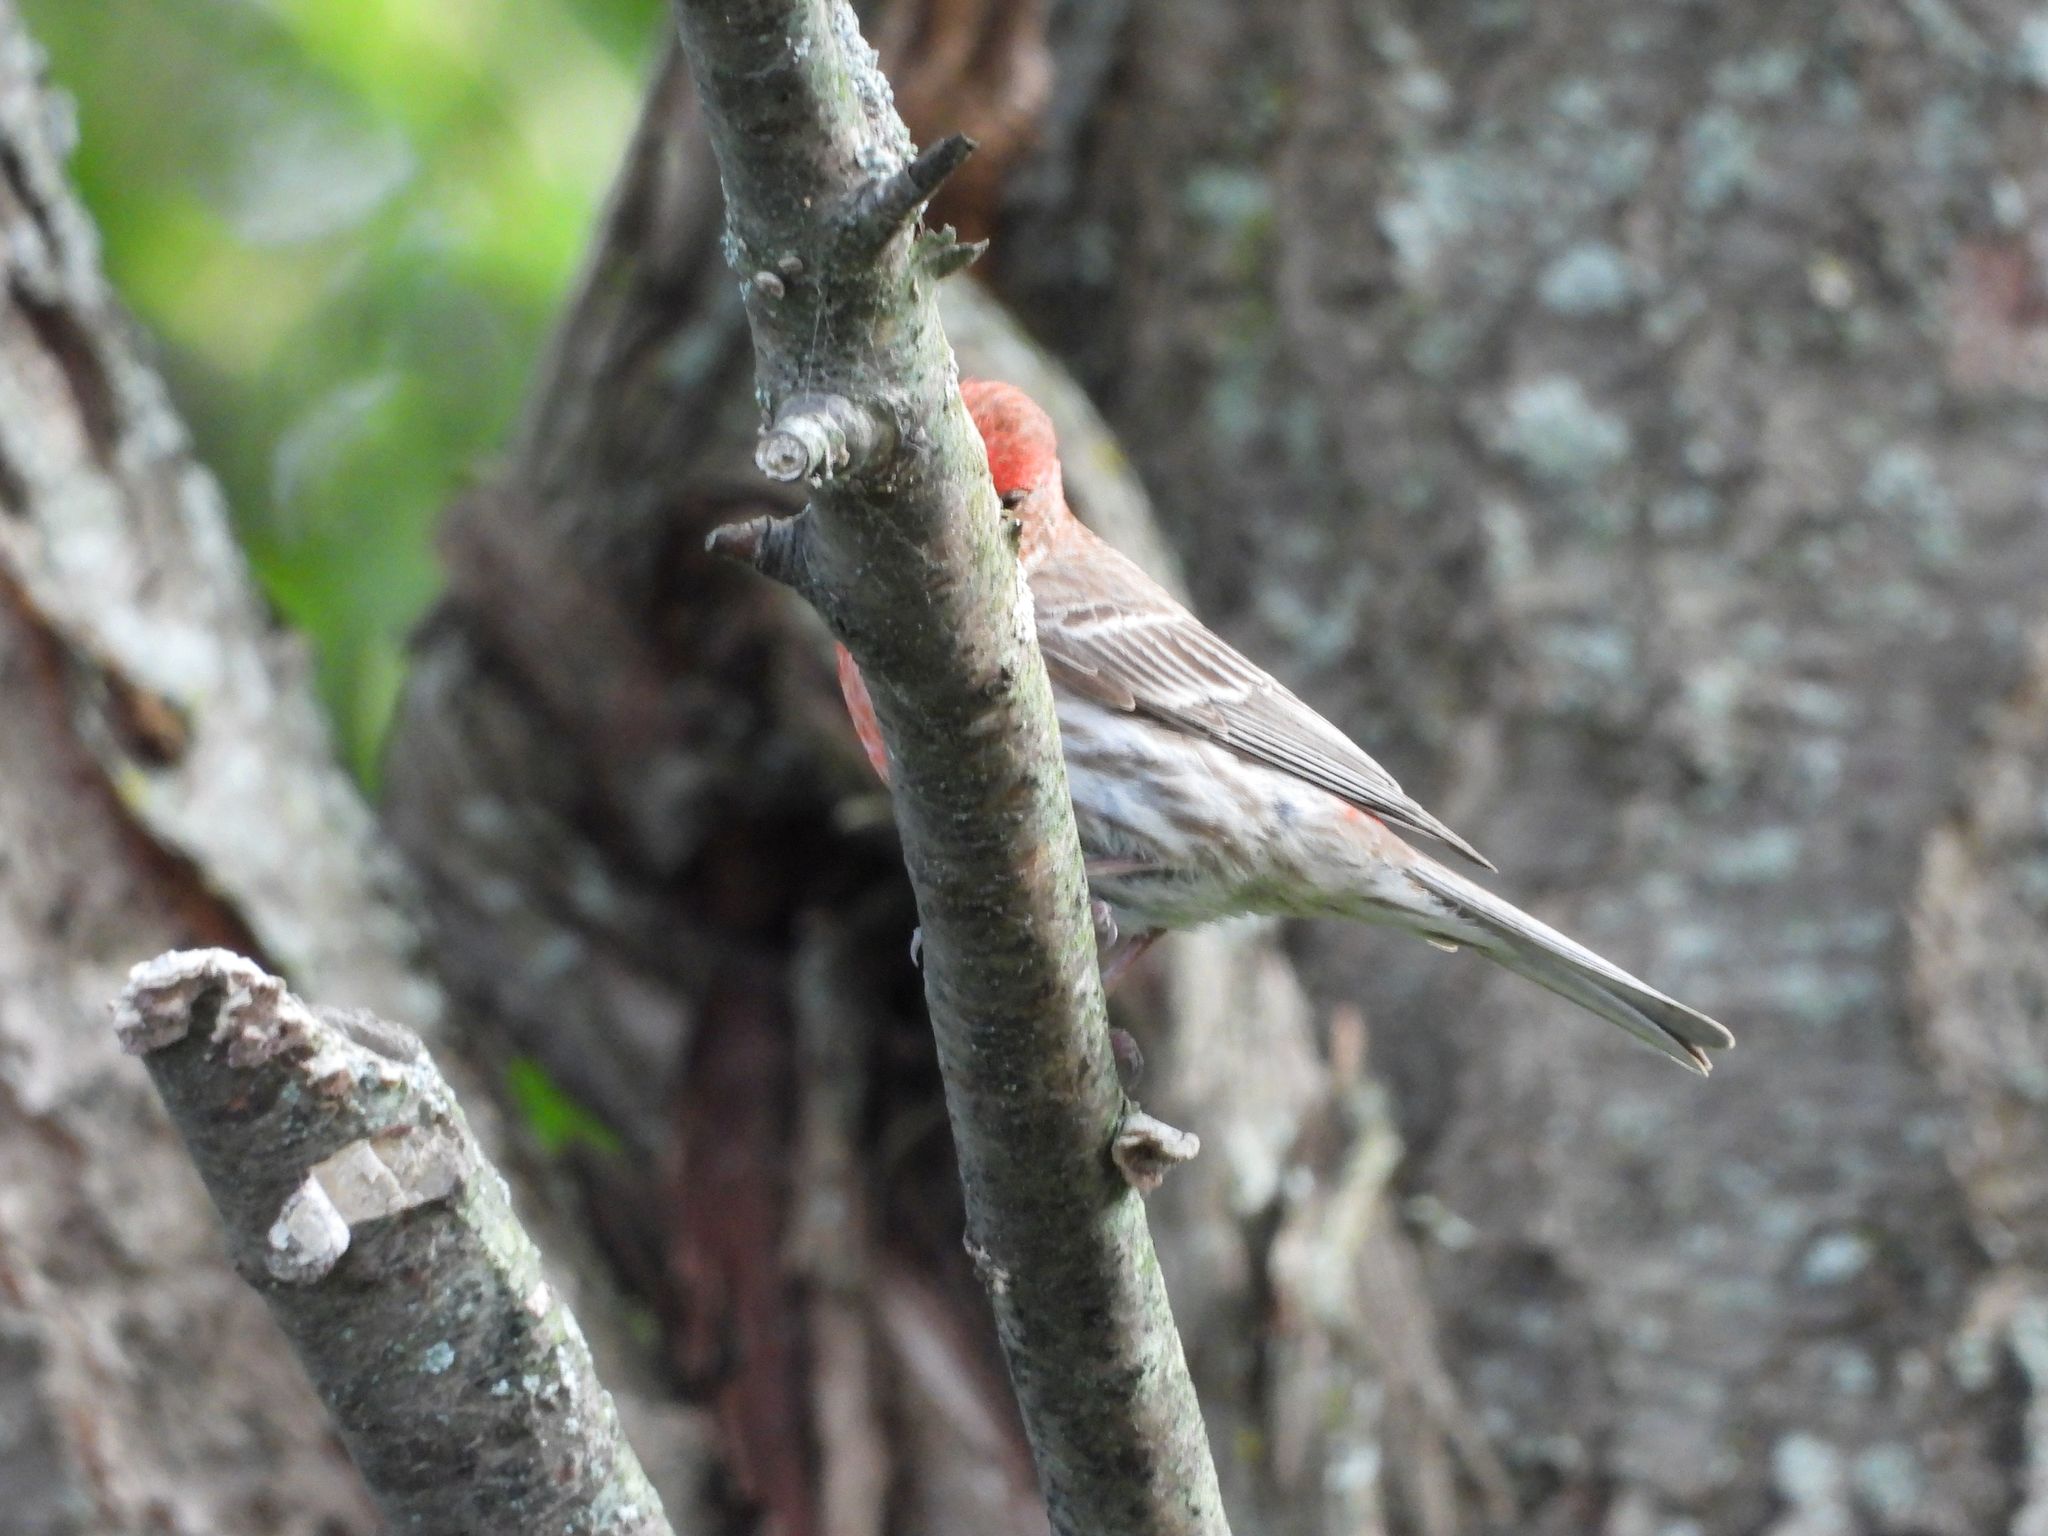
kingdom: Animalia
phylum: Chordata
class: Aves
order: Passeriformes
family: Fringillidae
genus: Haemorhous
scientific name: Haemorhous mexicanus
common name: House finch
